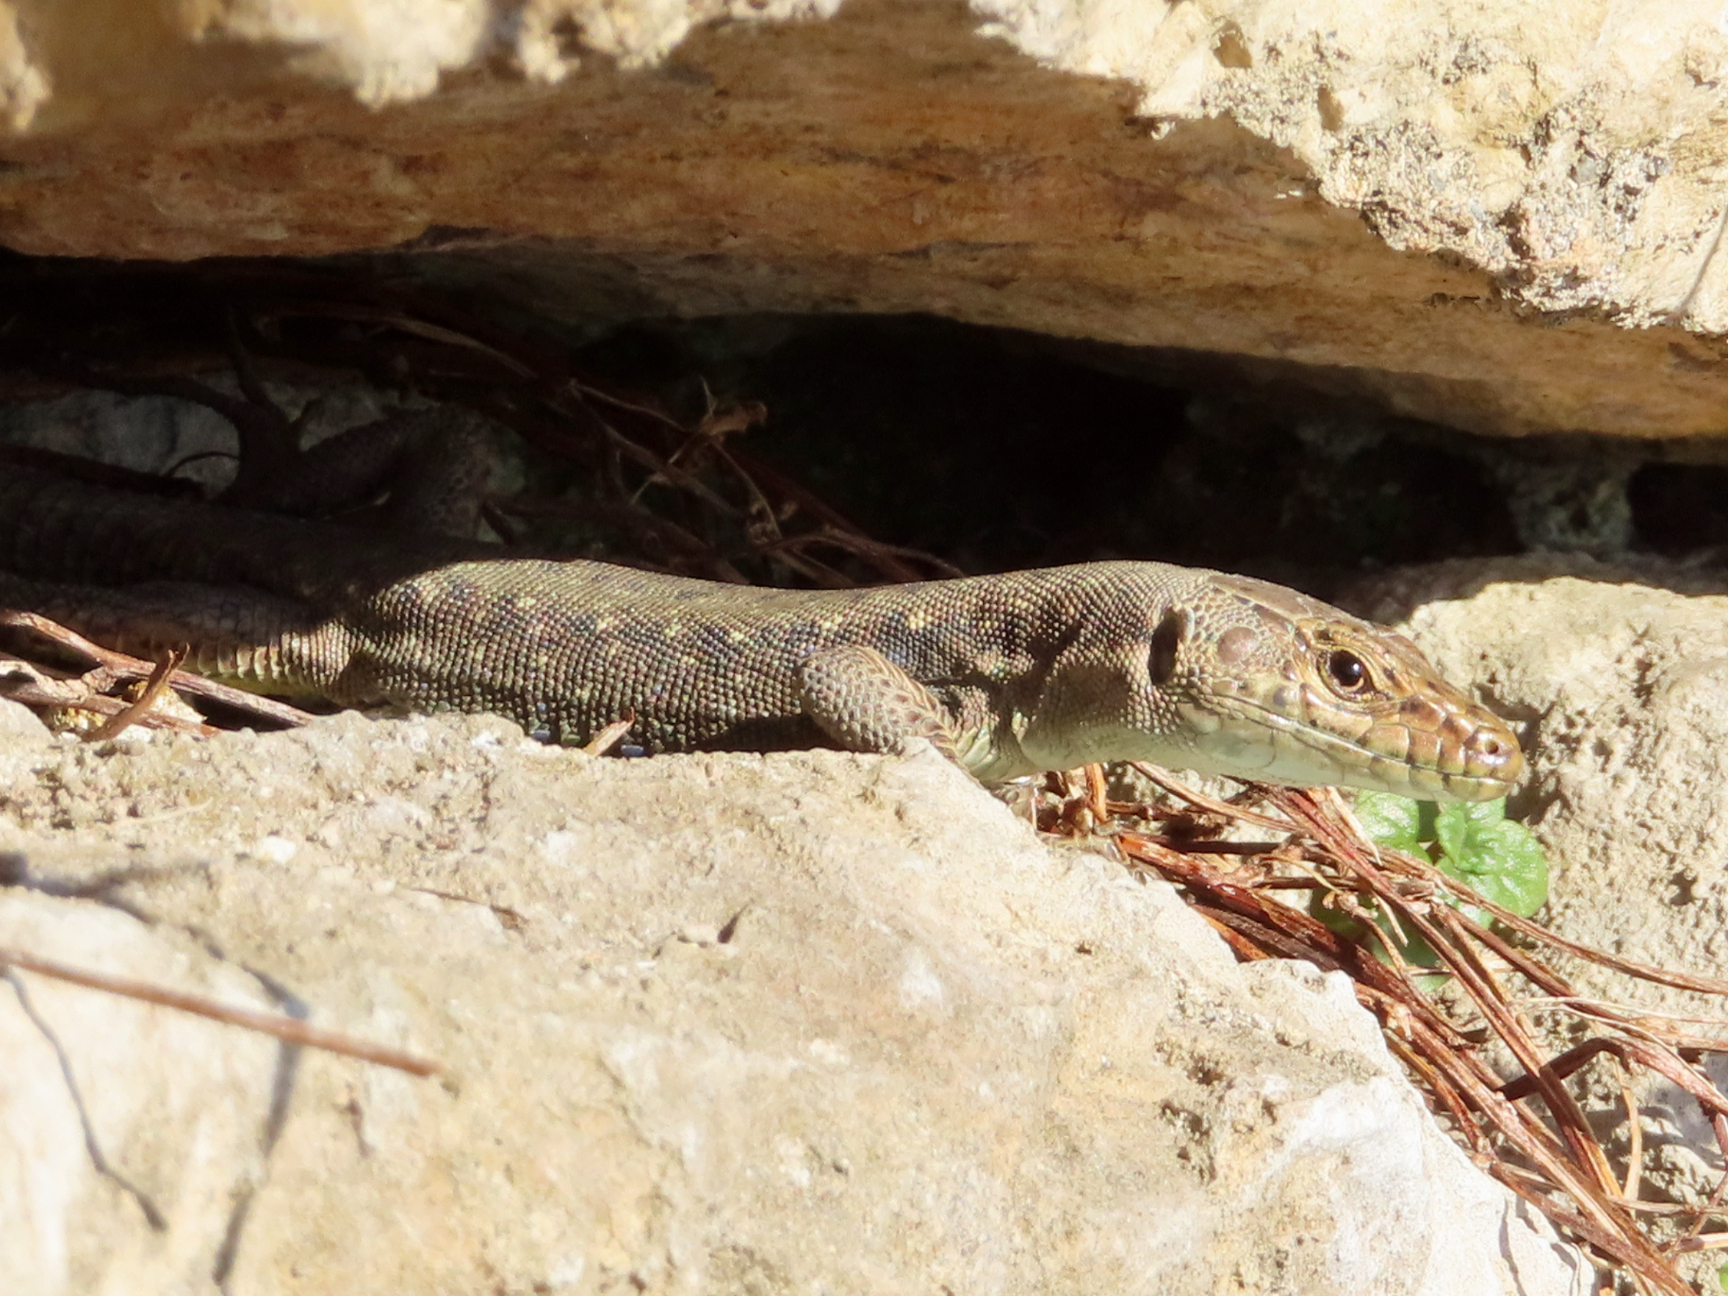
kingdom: Animalia
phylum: Chordata
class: Squamata
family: Lacertidae
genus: Darevskia
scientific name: Darevskia rudis
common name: Spiny-tailed lizard
